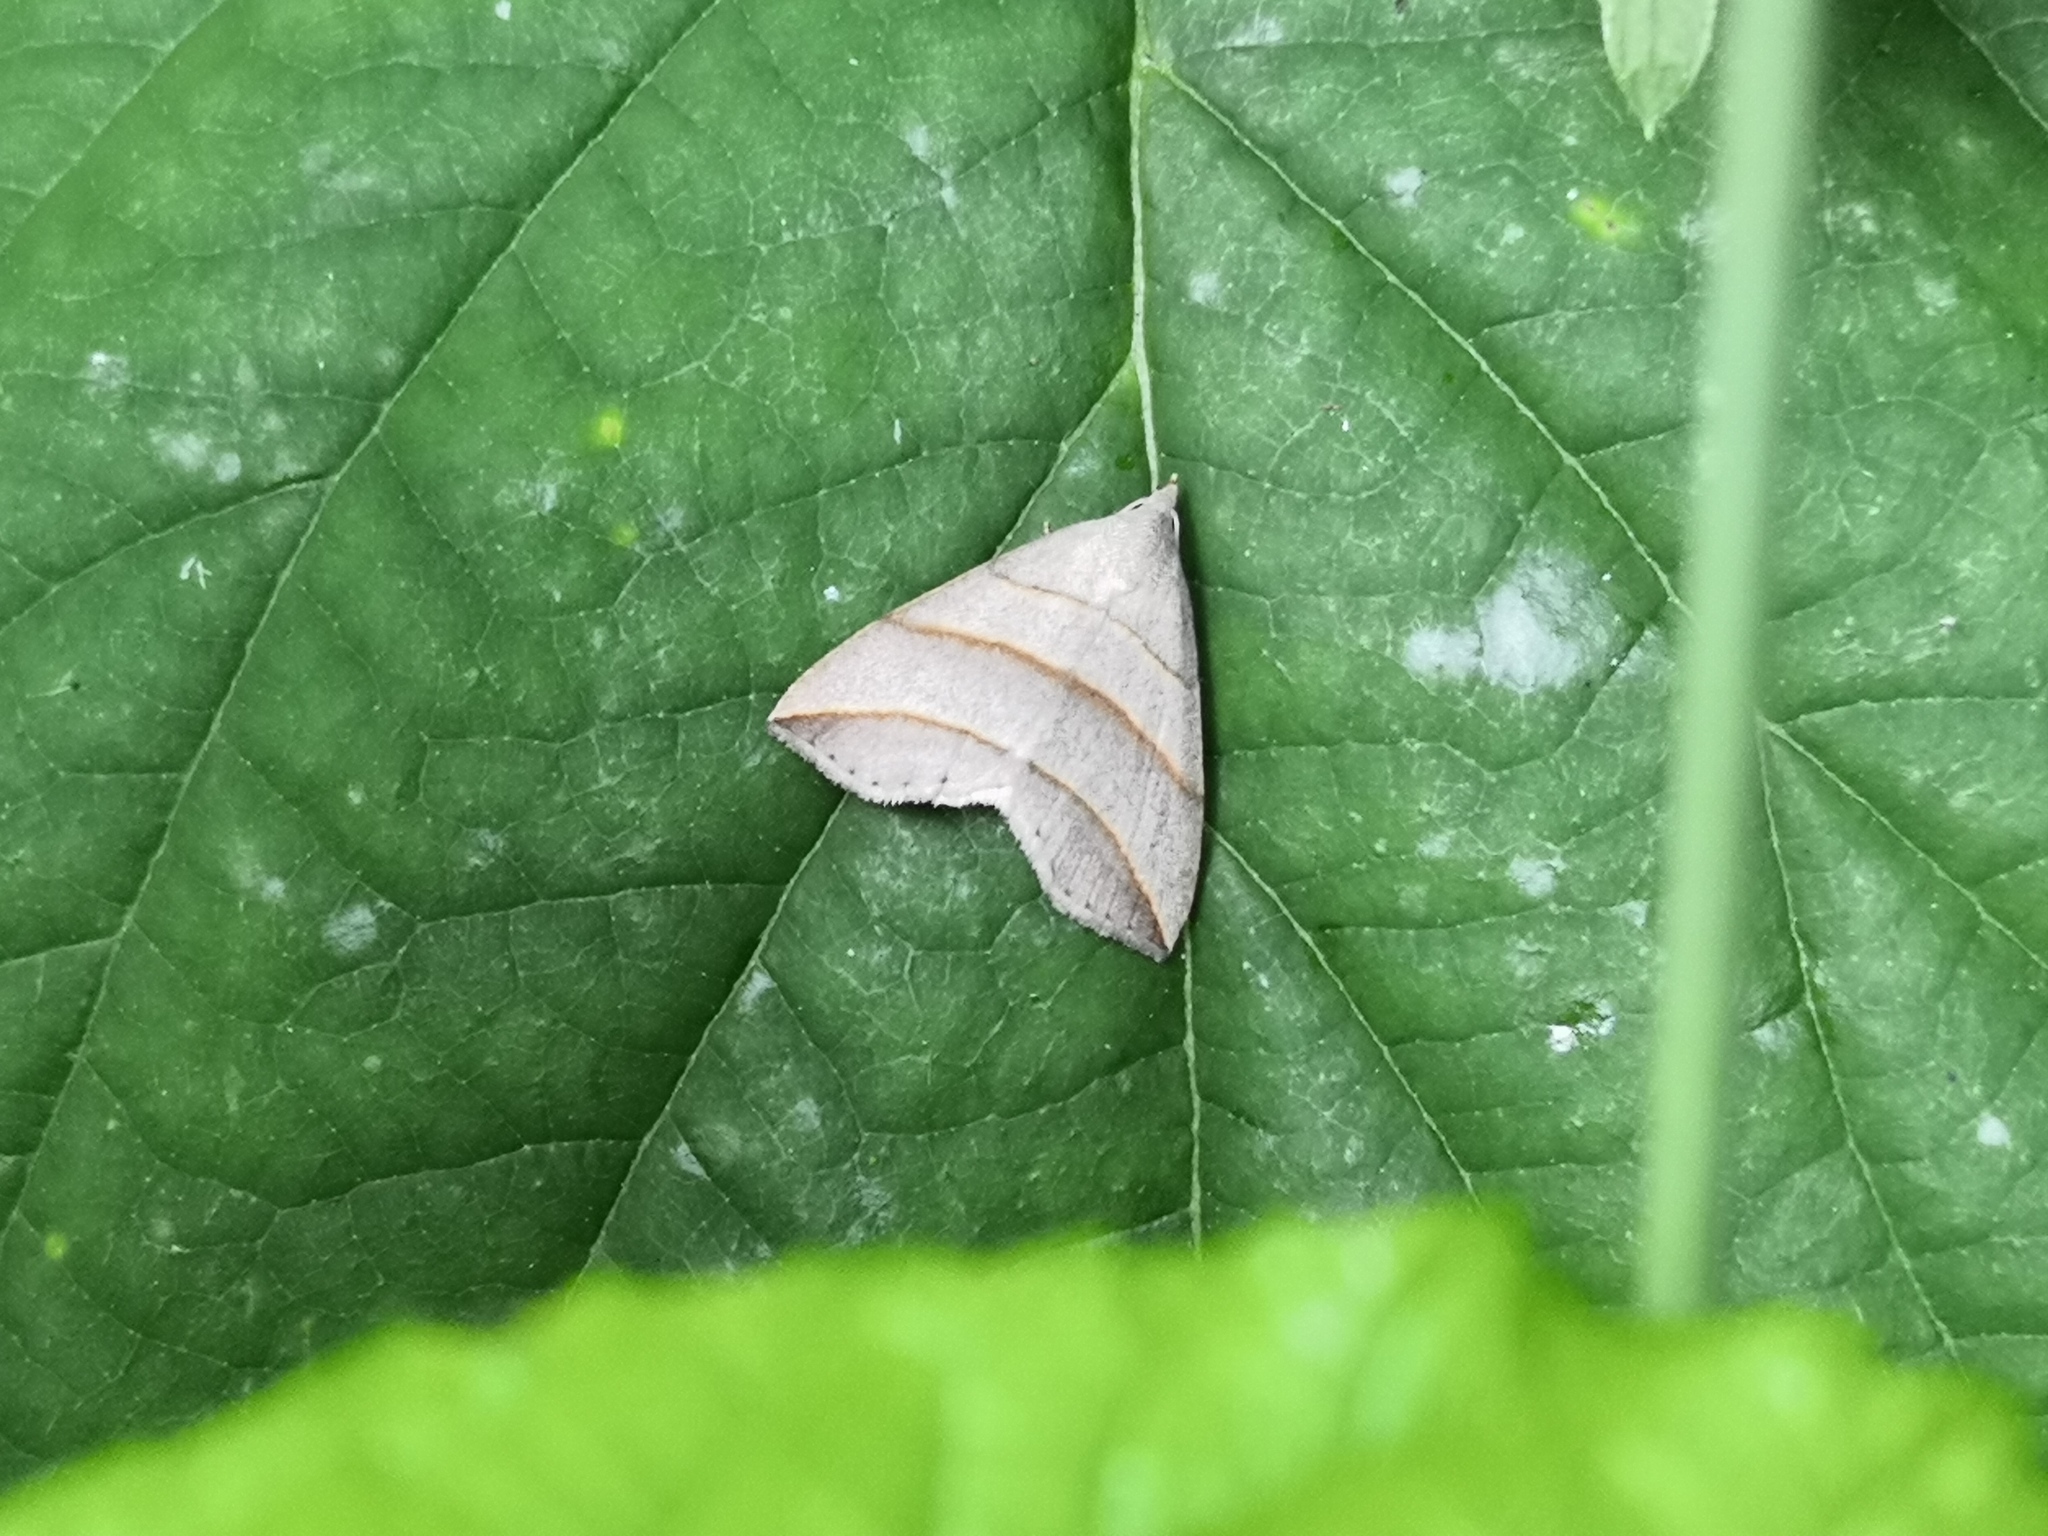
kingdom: Animalia
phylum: Arthropoda
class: Insecta
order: Lepidoptera
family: Erebidae
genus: Colobochyla
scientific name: Colobochyla salicalis
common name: Lesser belle
